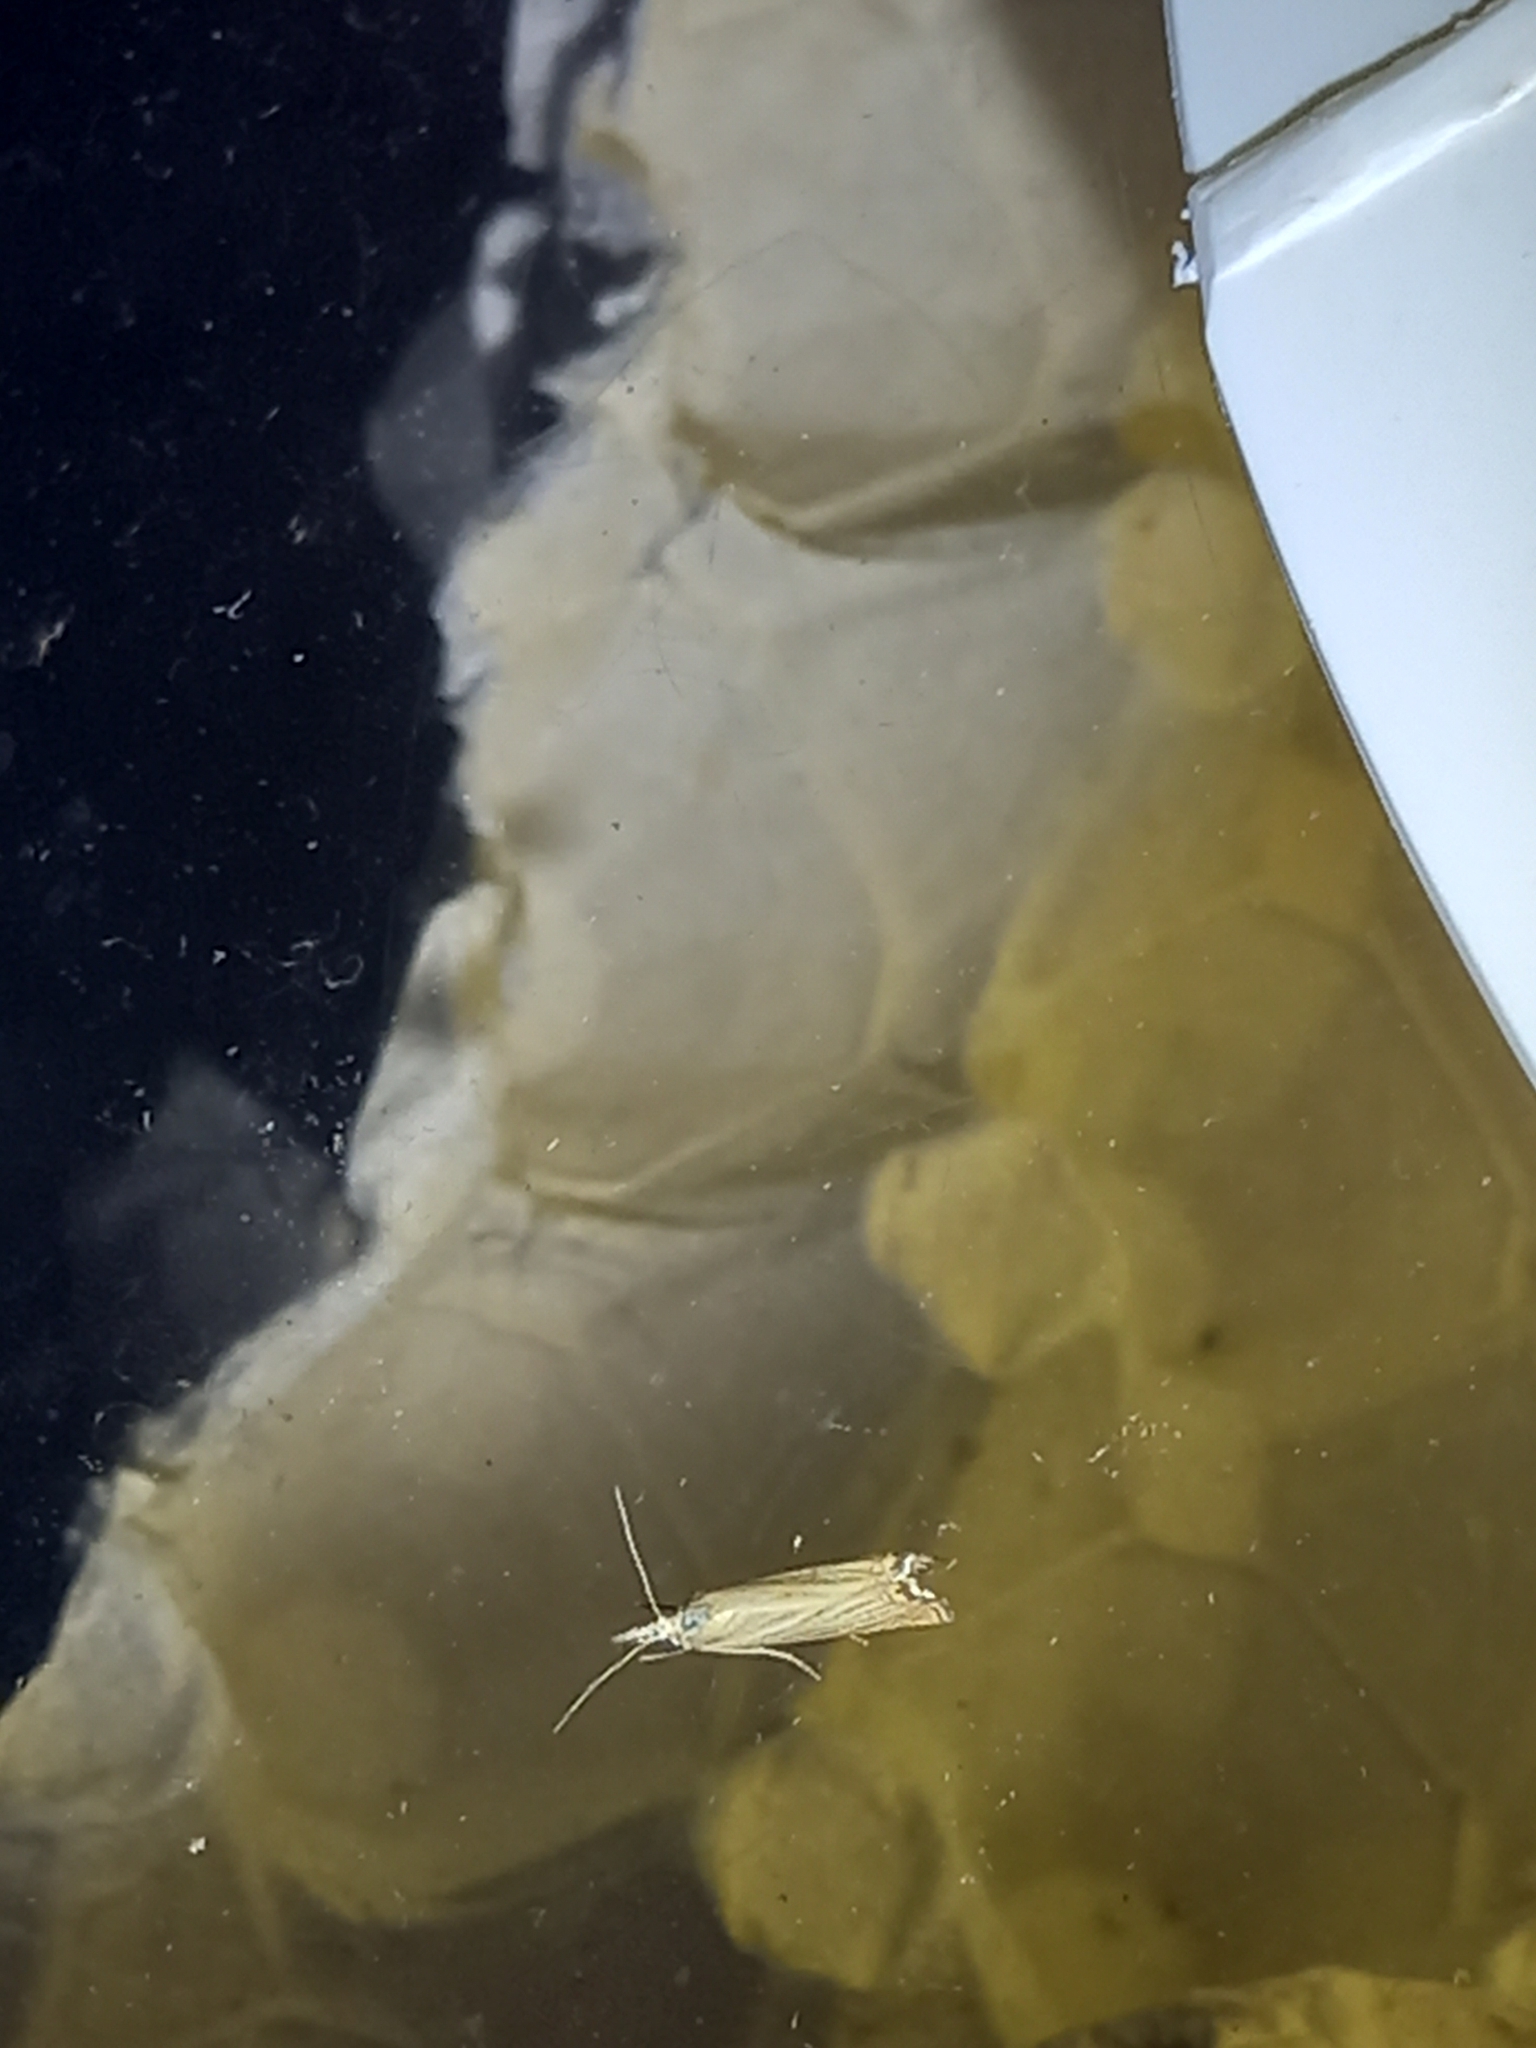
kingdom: Animalia
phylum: Arthropoda
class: Insecta
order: Lepidoptera
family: Crambidae
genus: Chrysoteuchia
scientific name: Chrysoteuchia culmella
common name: Garden grass-veneer
